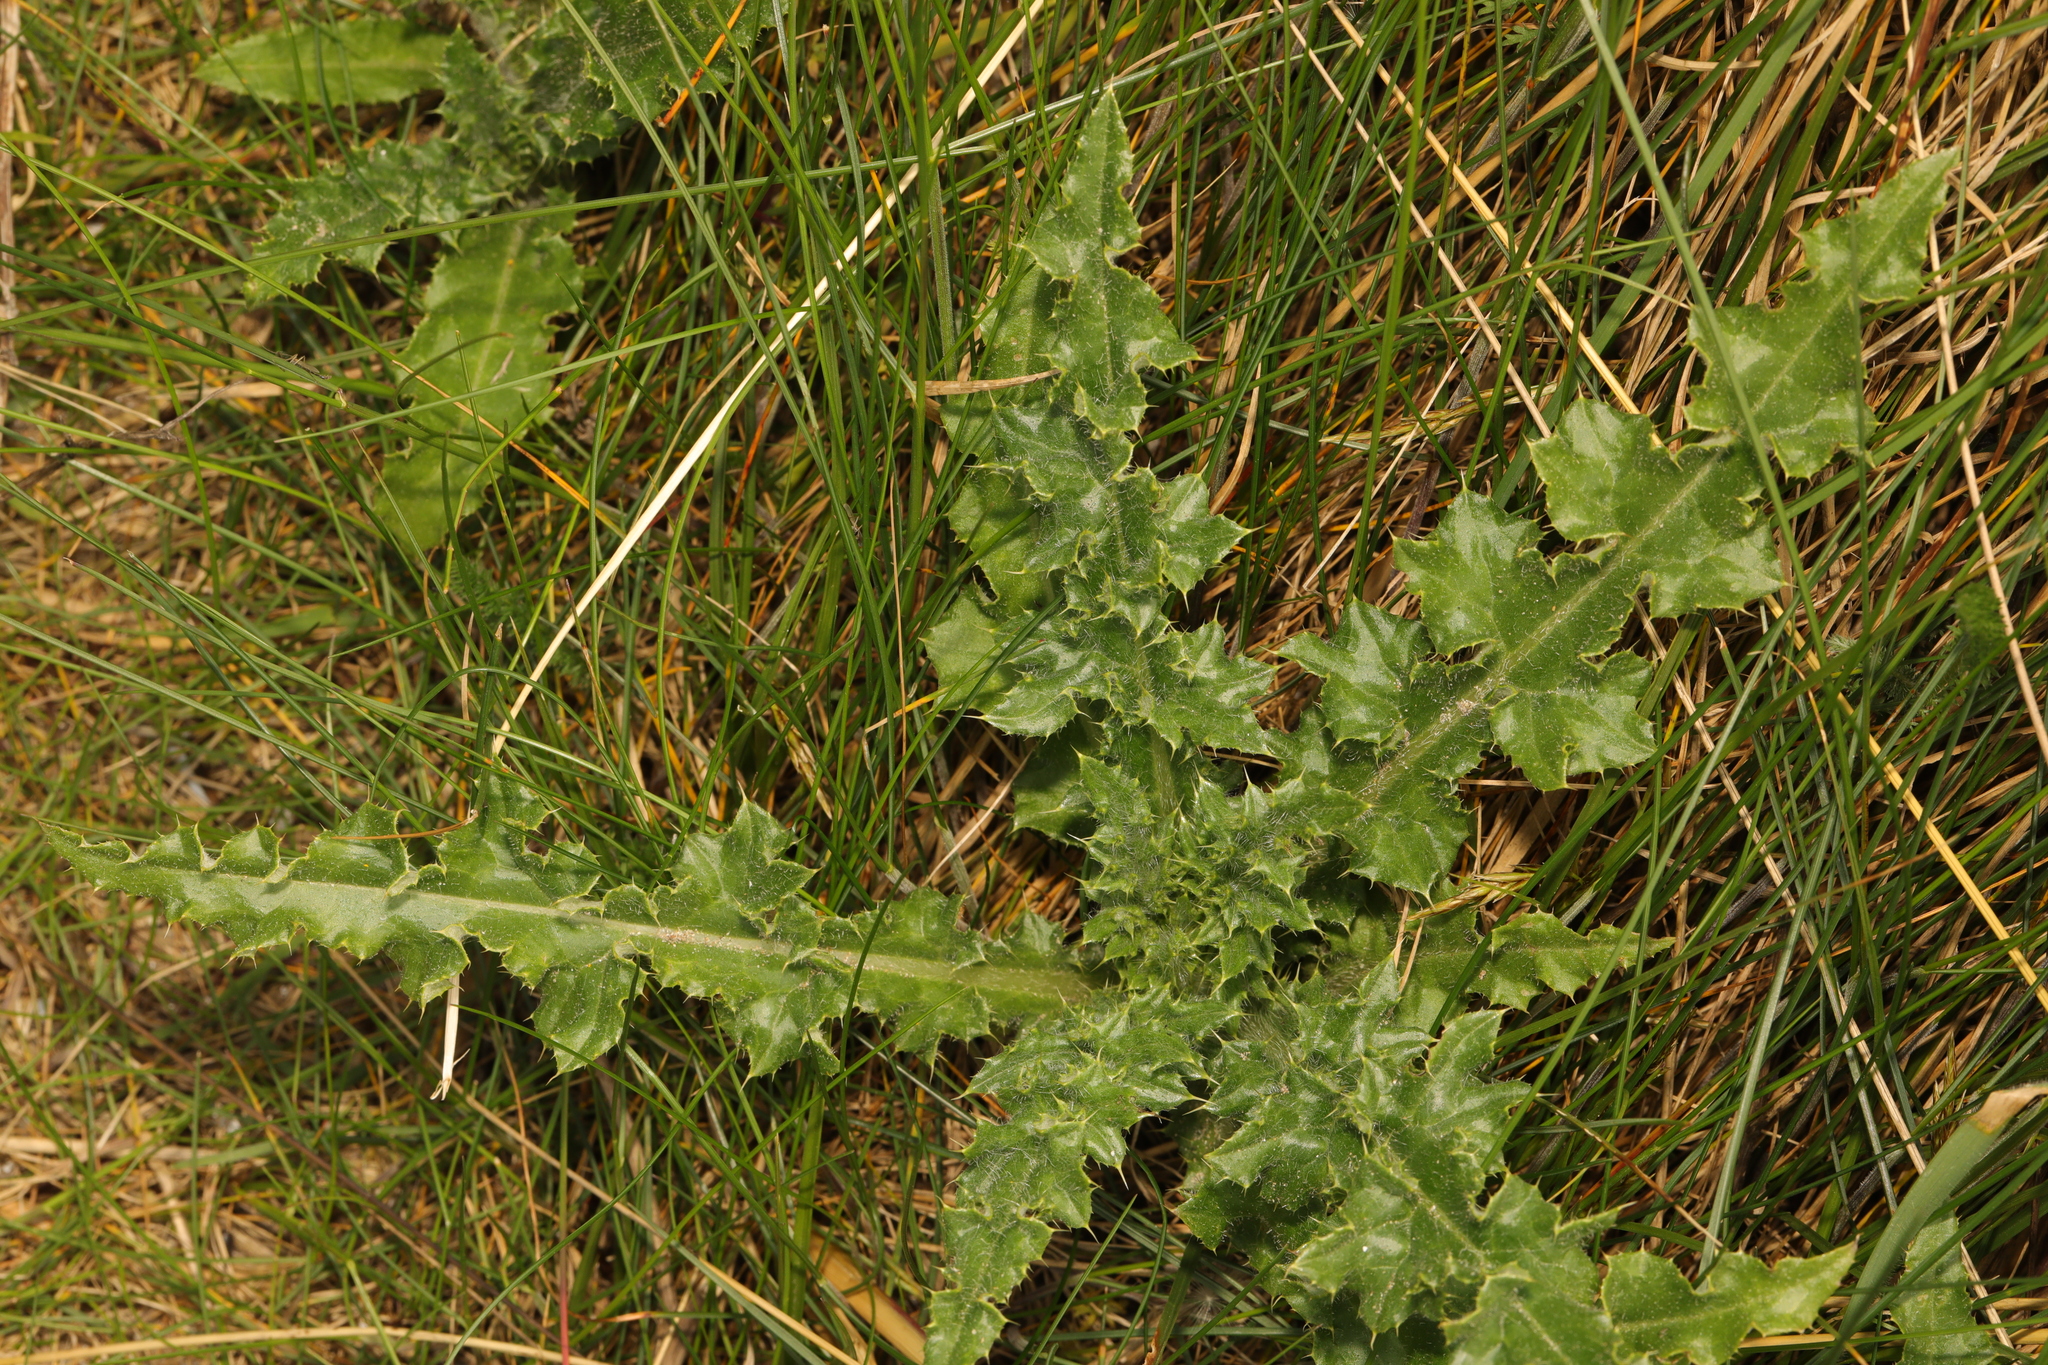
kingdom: Plantae
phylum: Tracheophyta
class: Magnoliopsida
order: Asterales
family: Asteraceae
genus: Cirsium
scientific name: Cirsium arvense
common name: Creeping thistle
